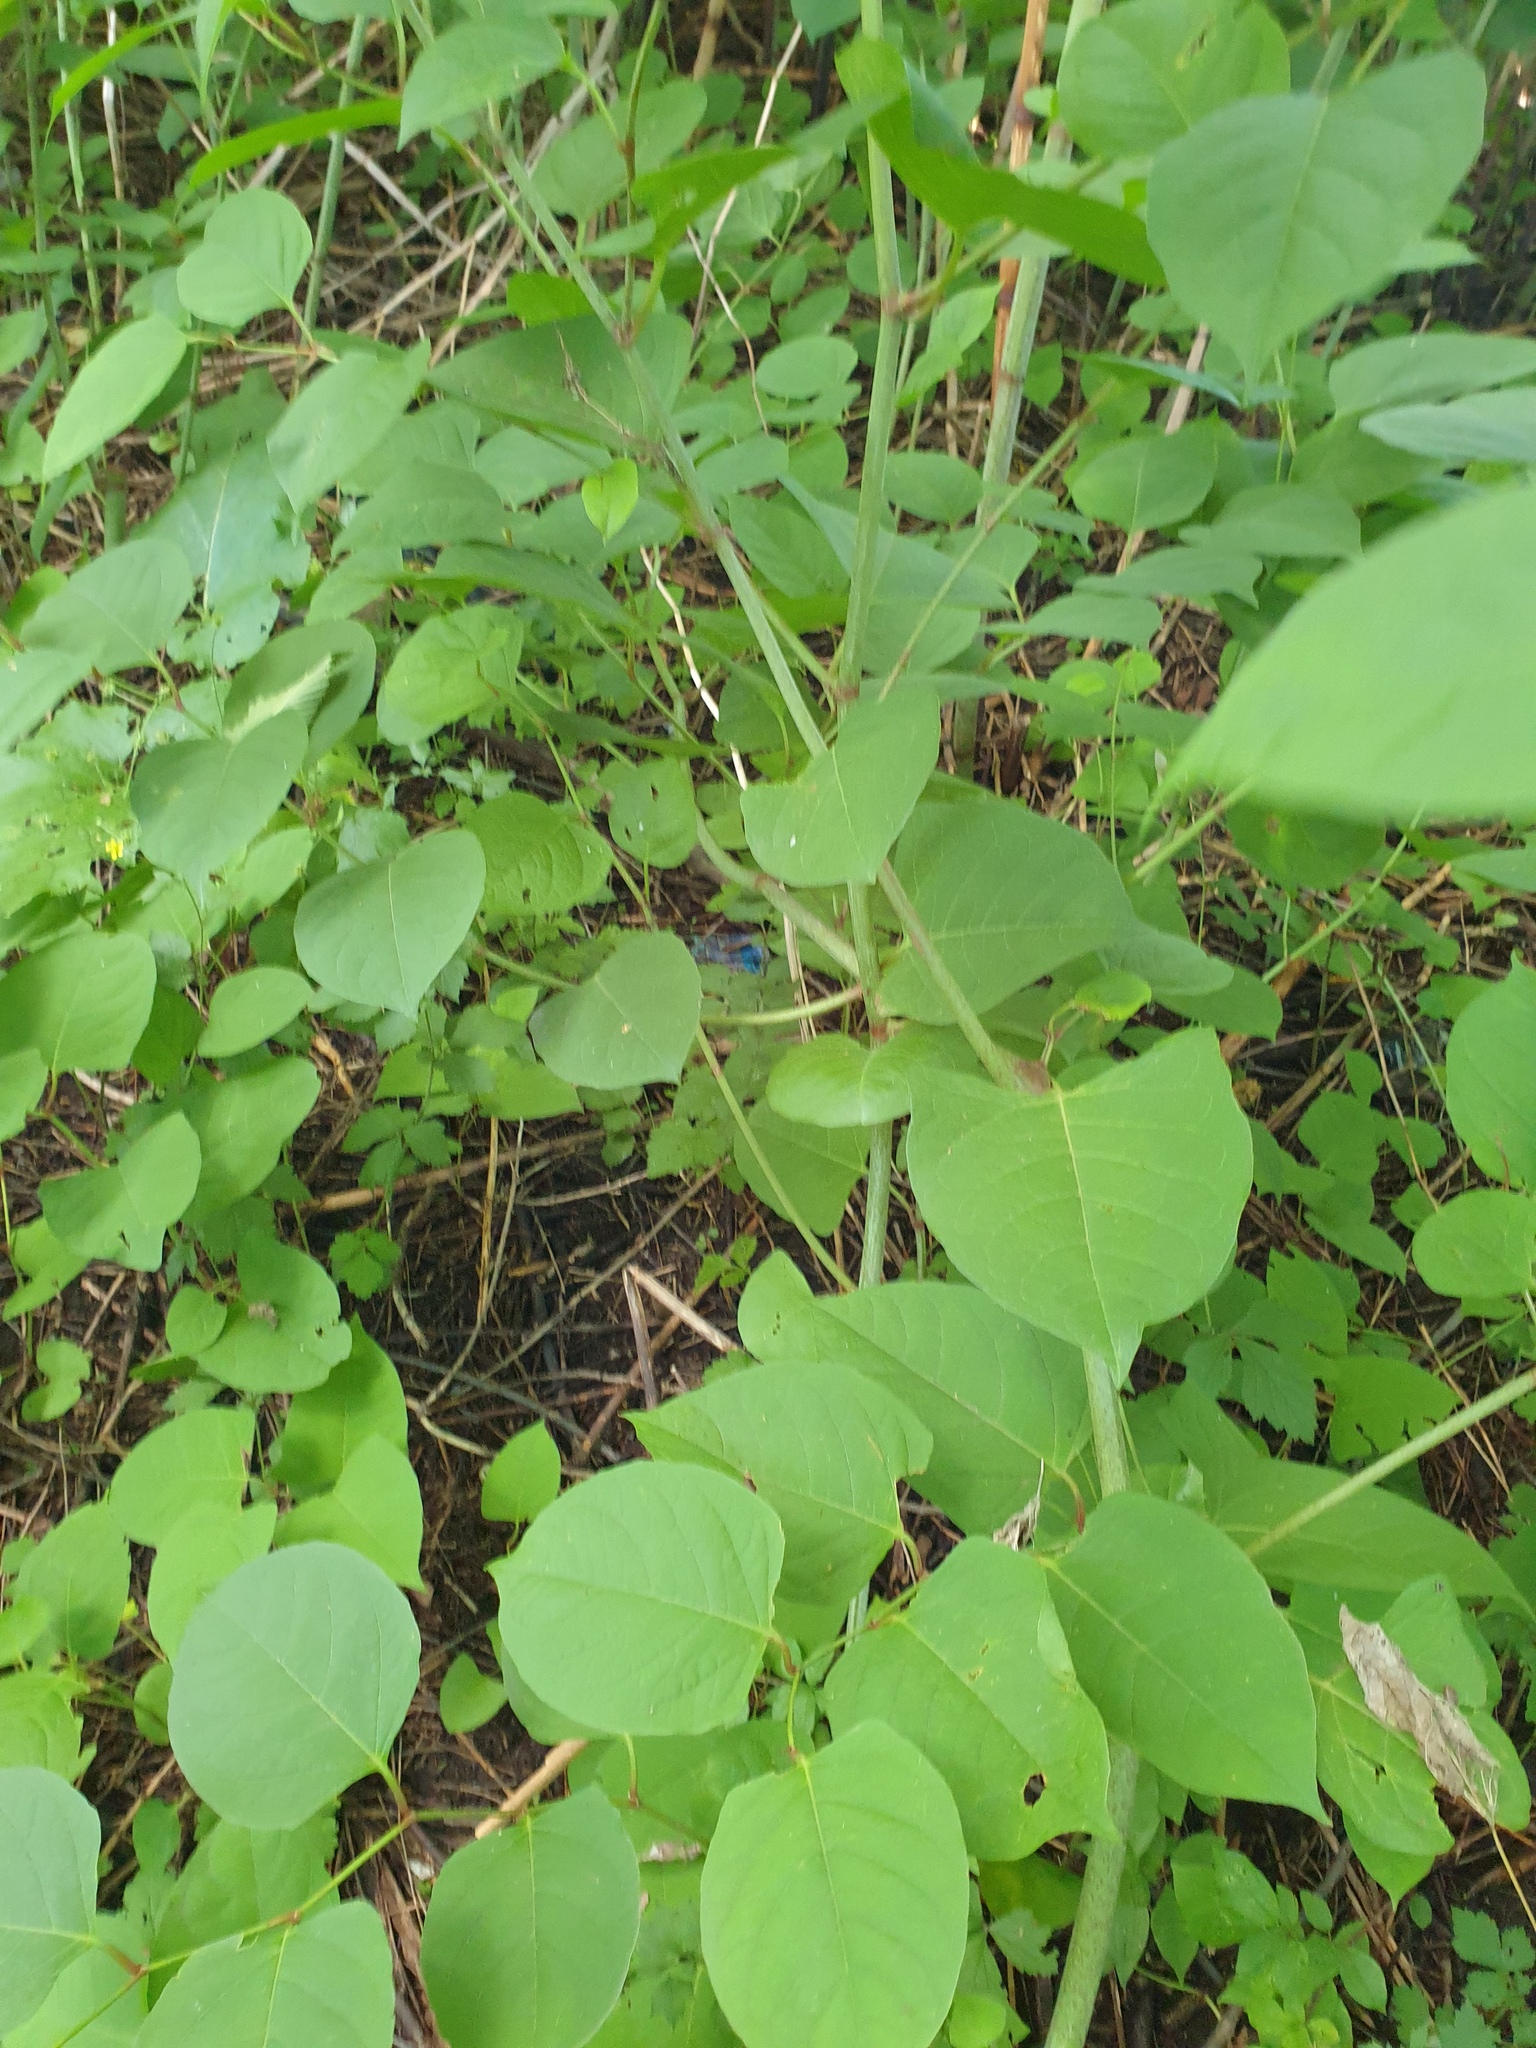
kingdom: Plantae
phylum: Tracheophyta
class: Magnoliopsida
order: Caryophyllales
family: Polygonaceae
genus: Reynoutria
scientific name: Reynoutria japonica
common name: Japanese knotweed
